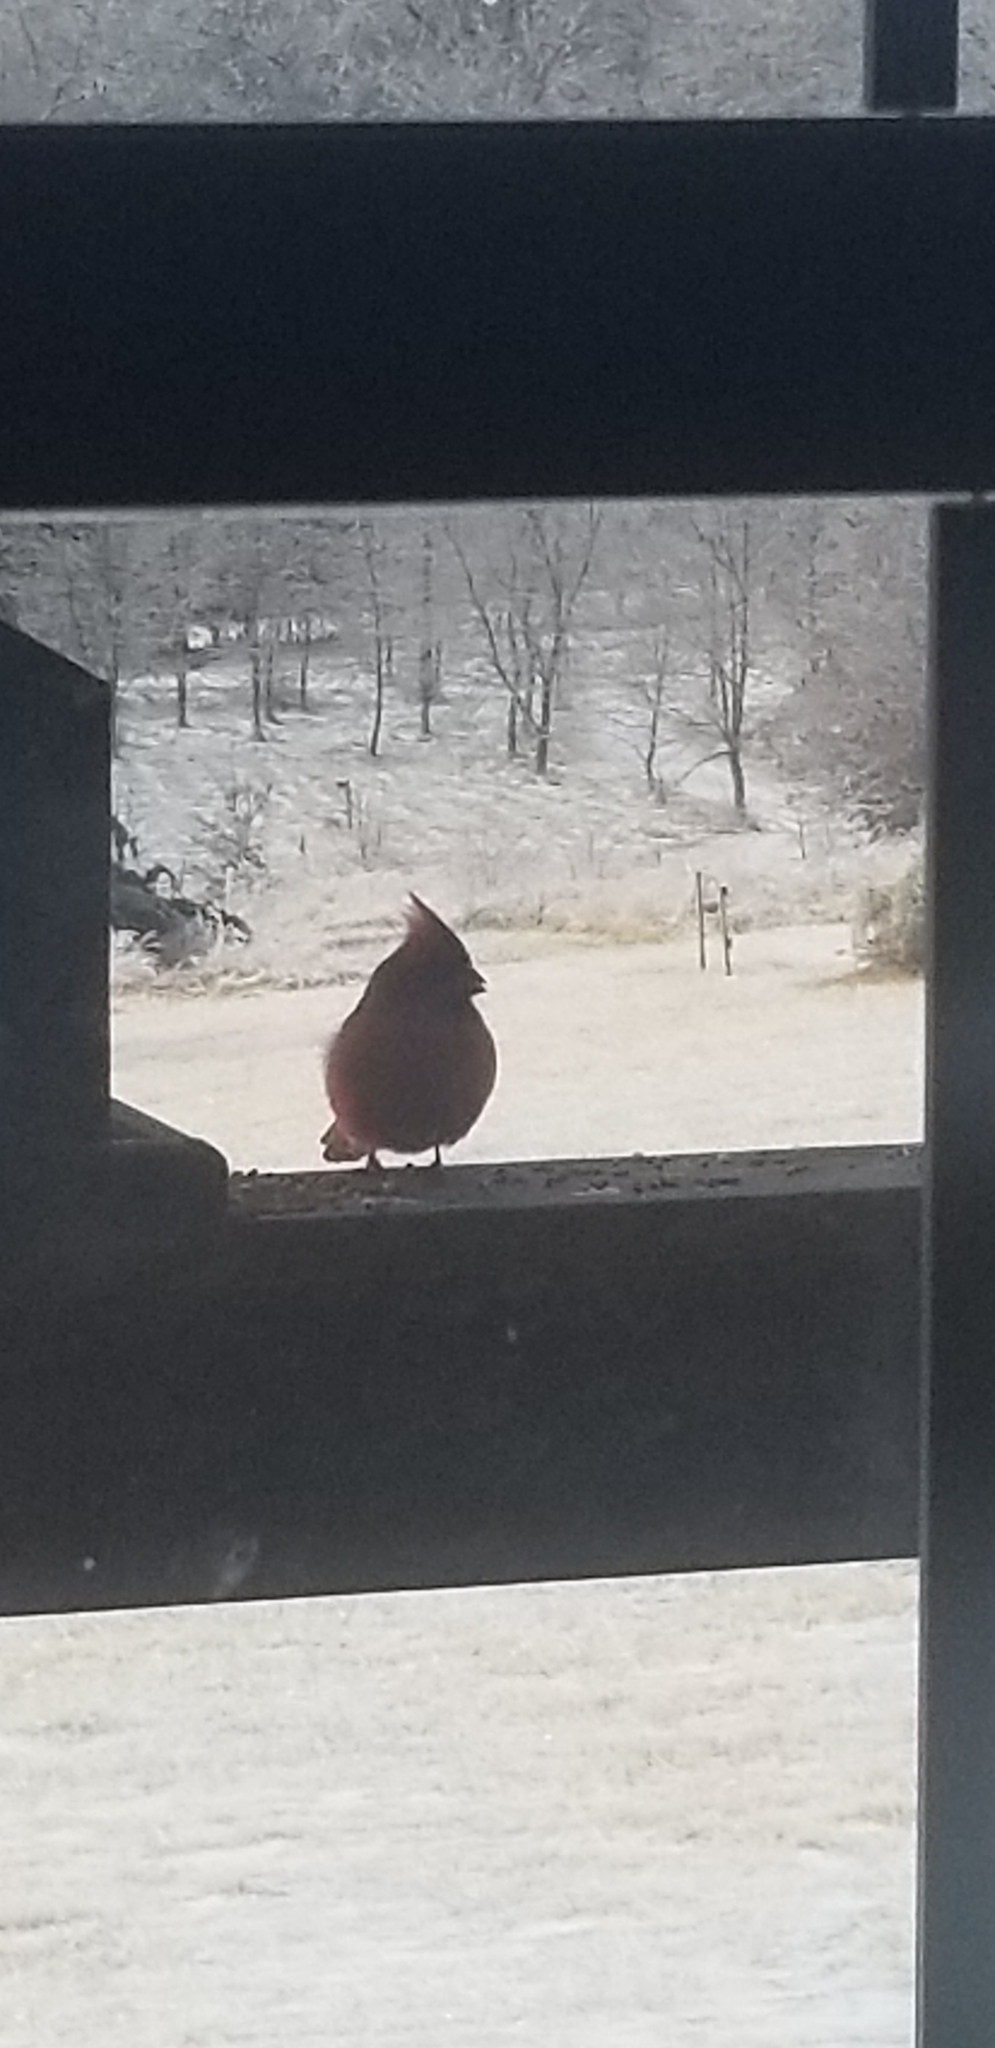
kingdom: Animalia
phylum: Chordata
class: Aves
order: Passeriformes
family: Cardinalidae
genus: Cardinalis
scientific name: Cardinalis cardinalis
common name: Northern cardinal
